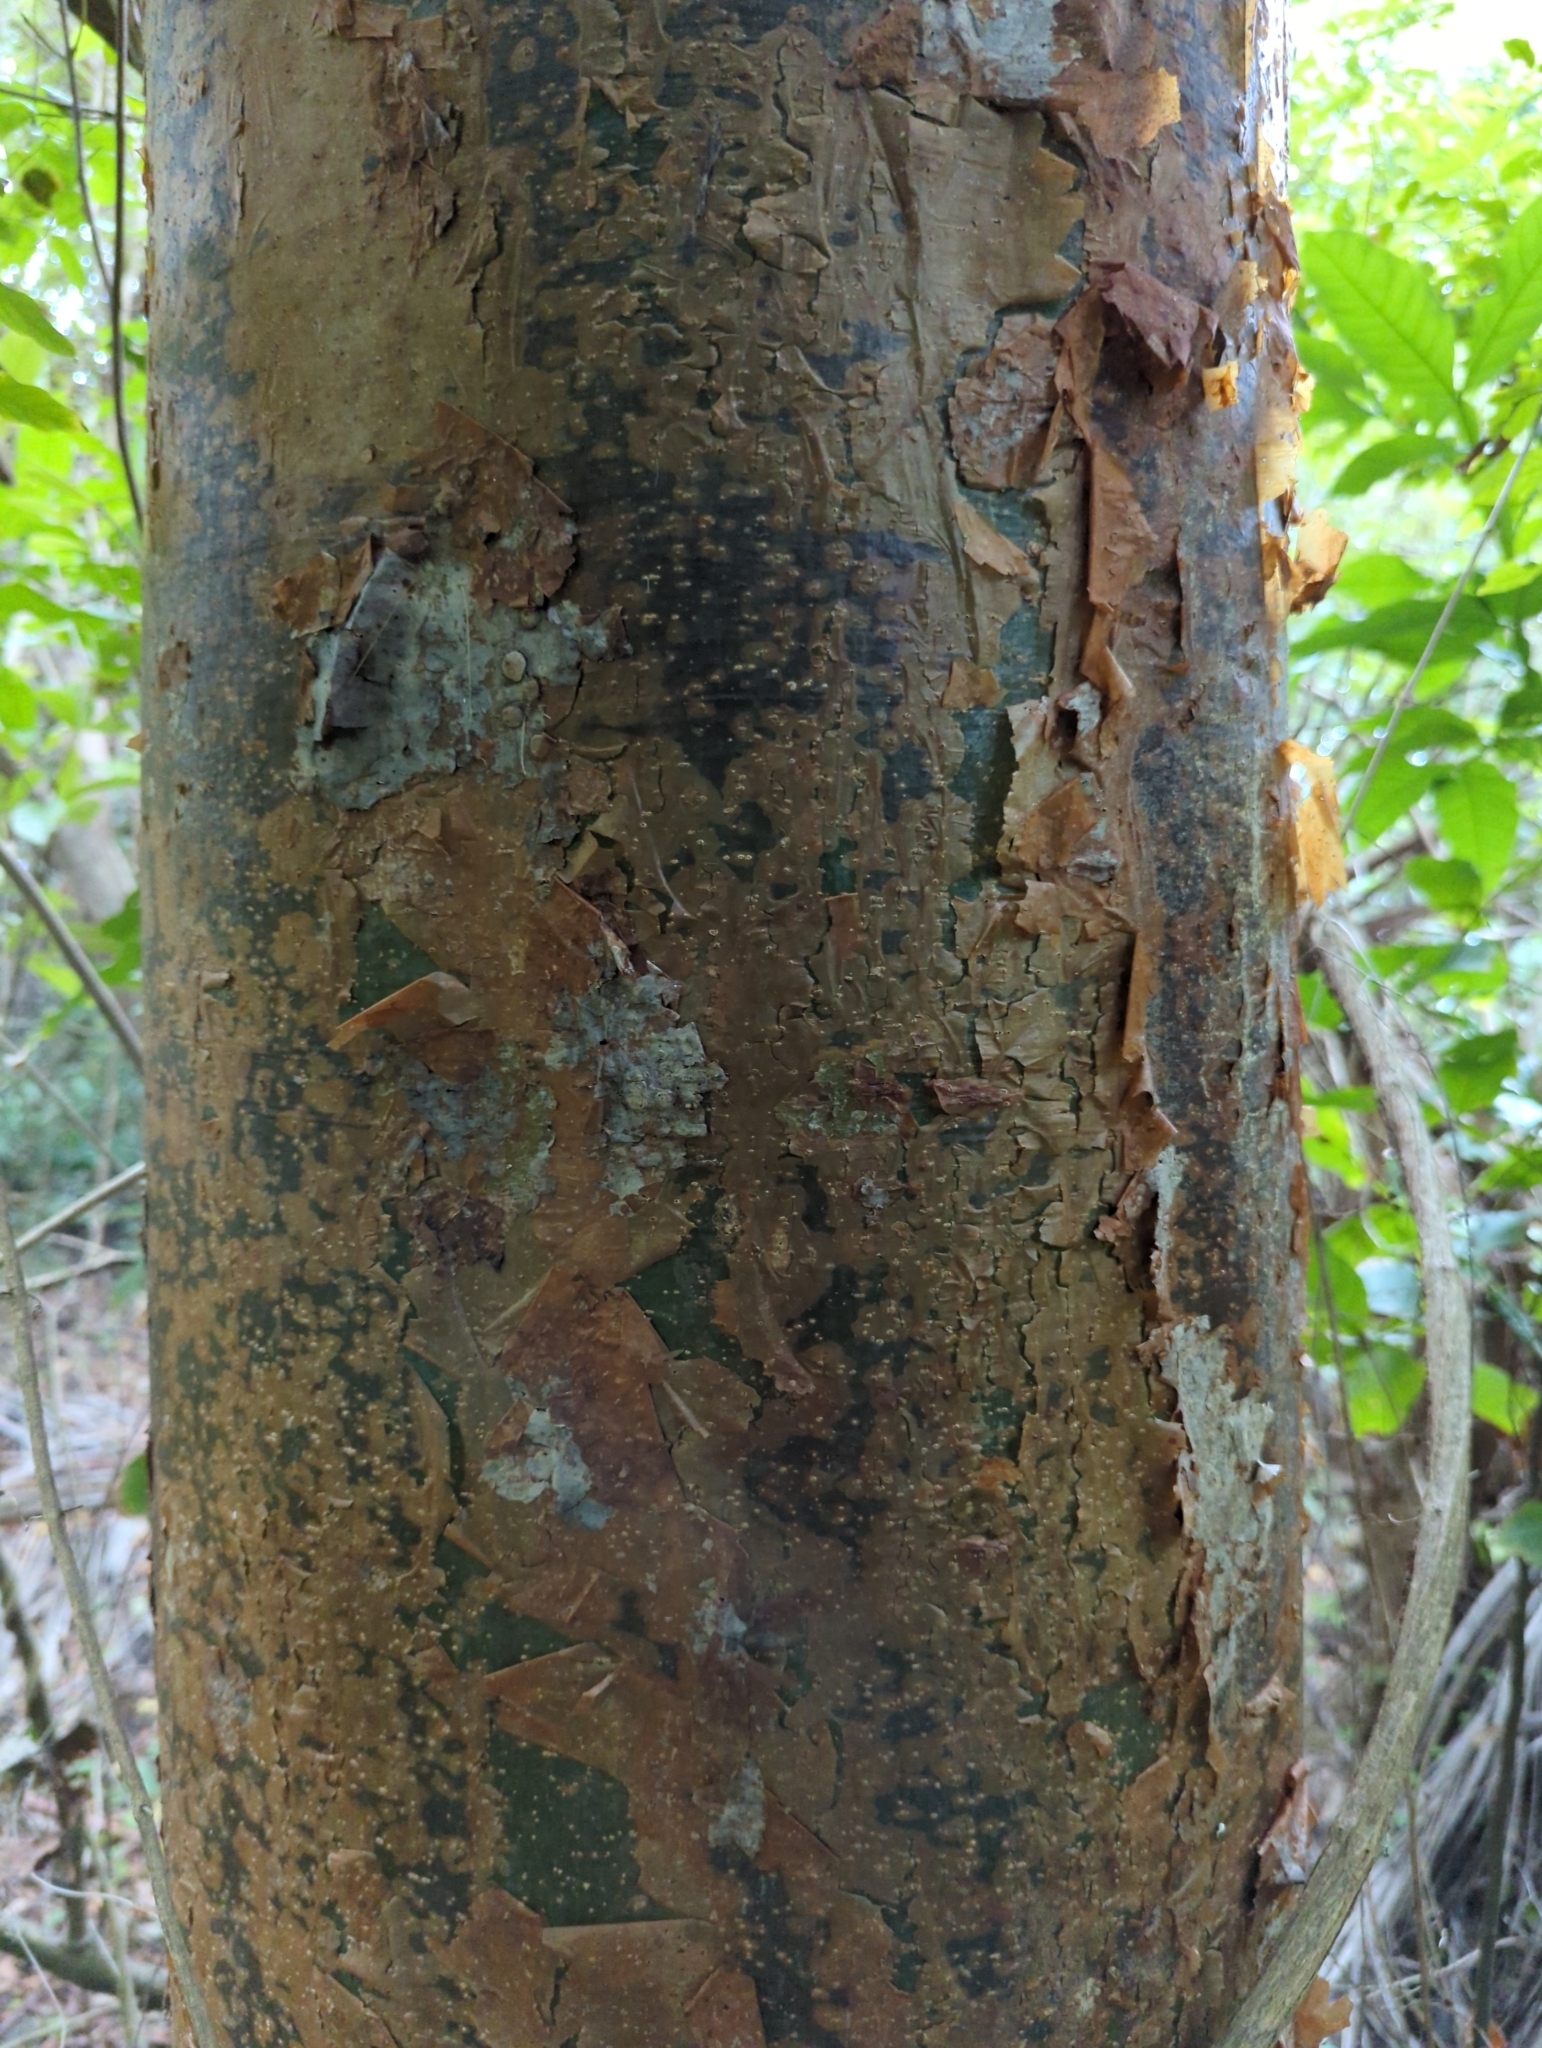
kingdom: Plantae
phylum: Tracheophyta
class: Magnoliopsida
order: Sapindales
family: Burseraceae
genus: Bursera
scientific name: Bursera simaruba
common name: Turpentine tree
